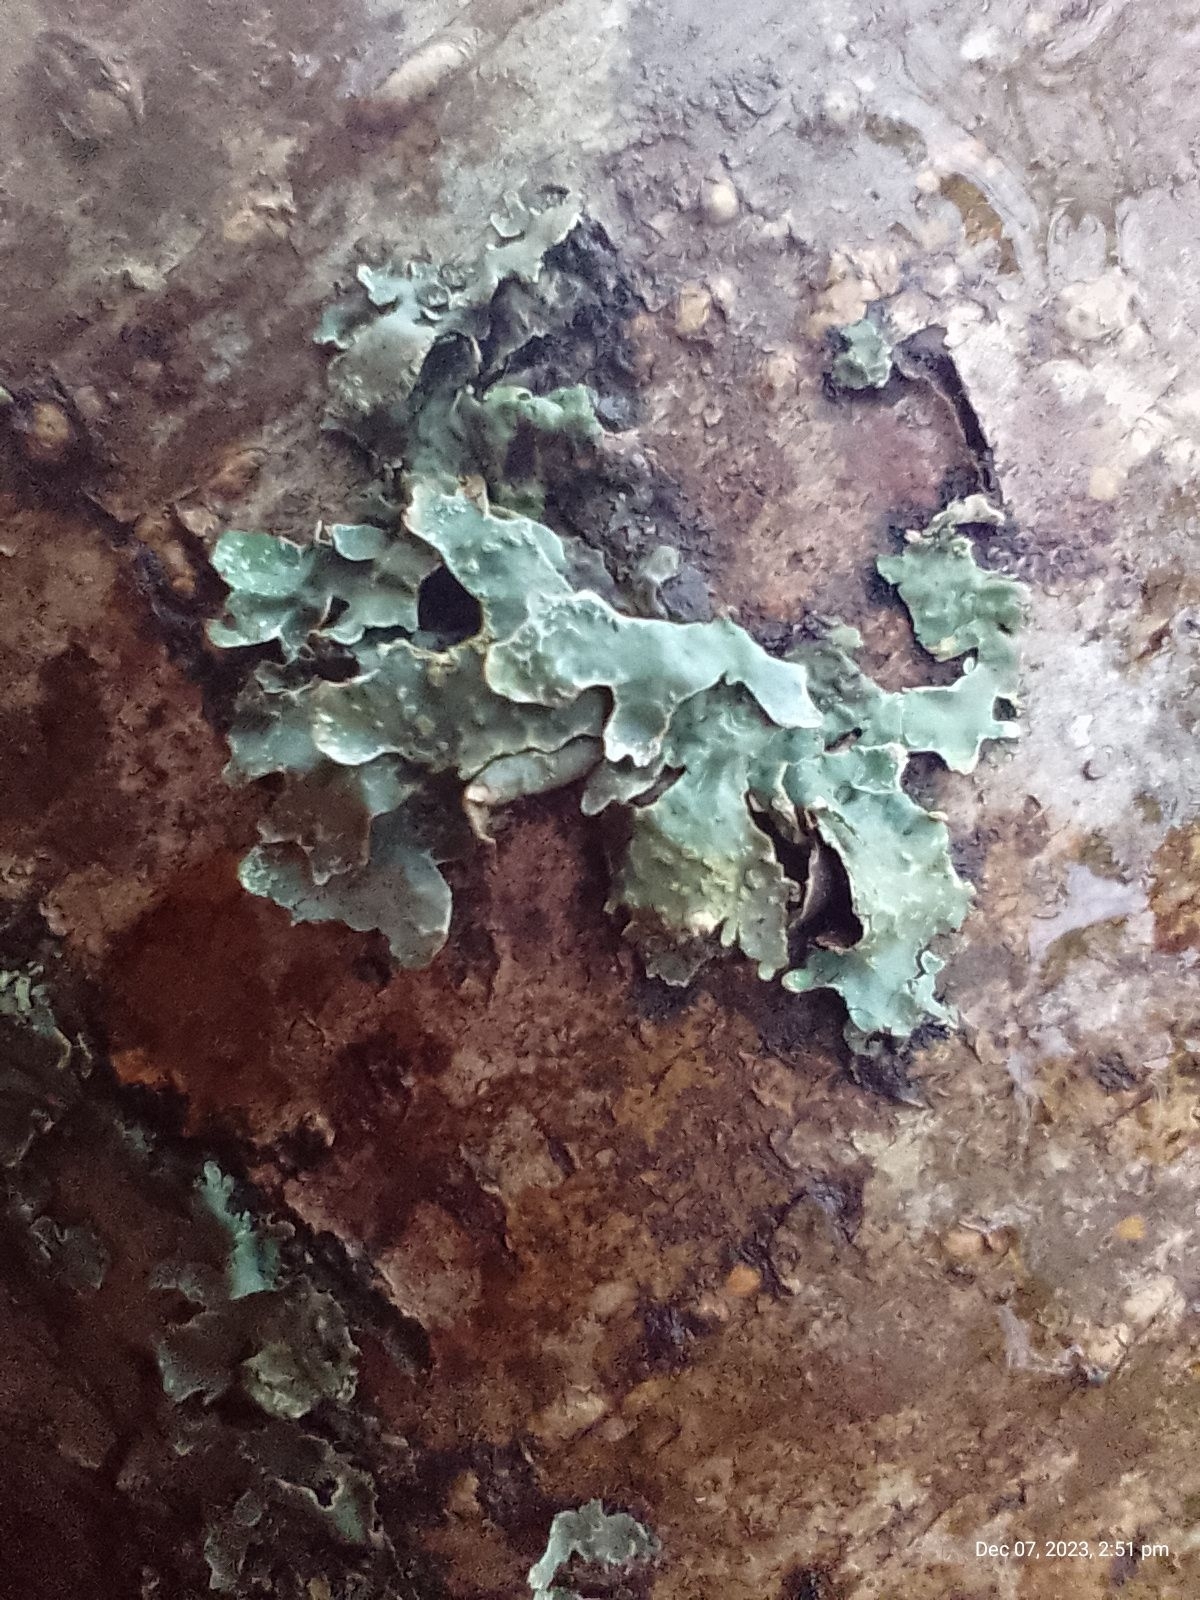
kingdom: Fungi
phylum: Ascomycota
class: Lecanoromycetes
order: Lecanorales
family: Parmeliaceae
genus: Parmelia
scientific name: Parmelia sulcata
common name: Netted shield lichen
